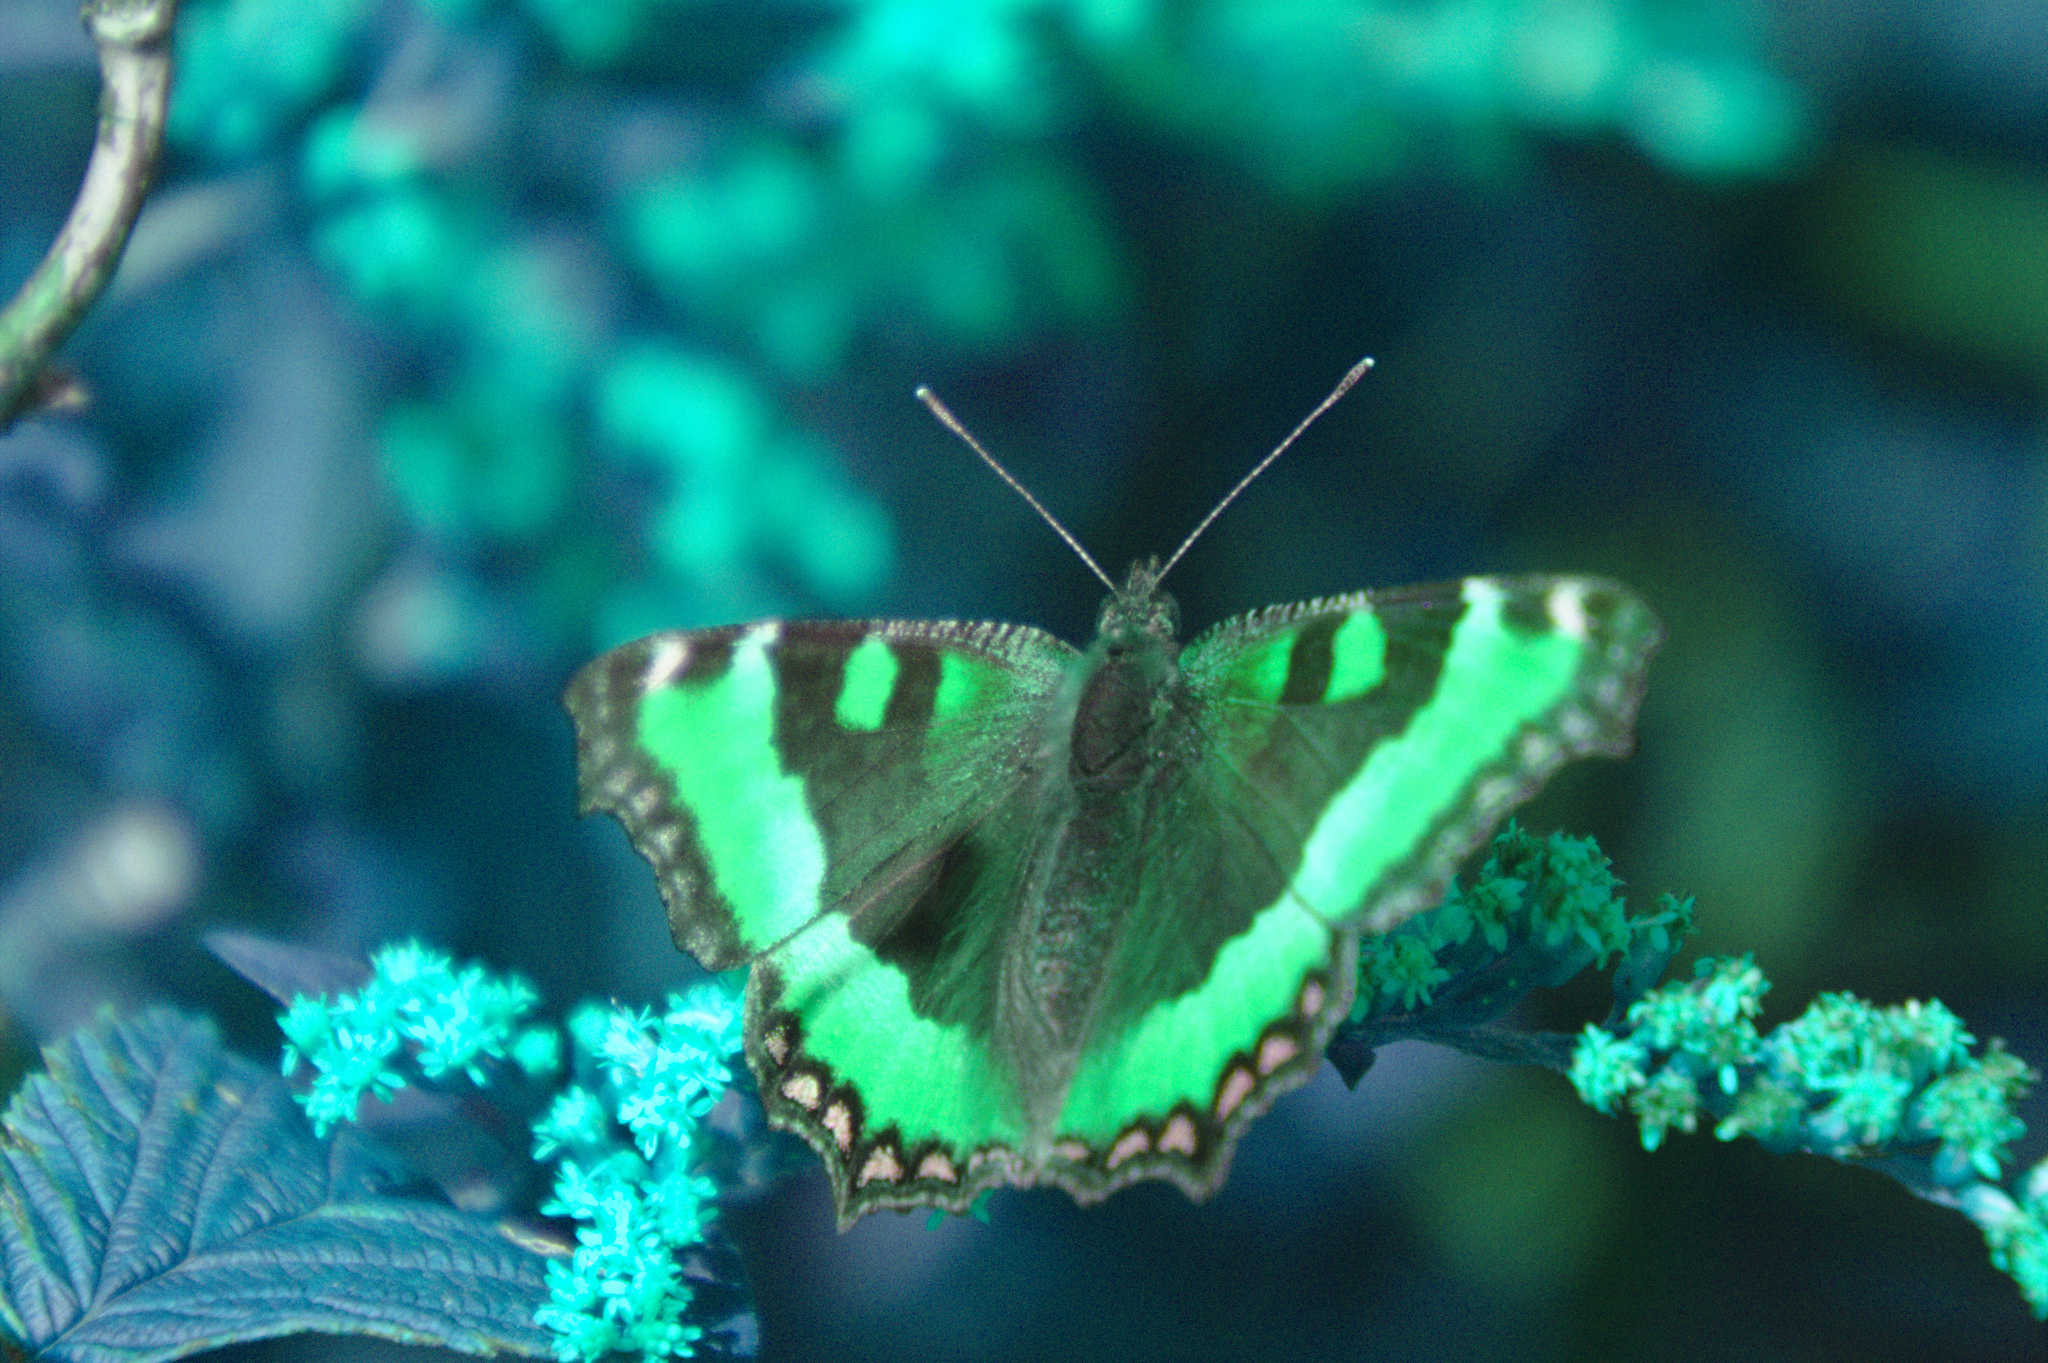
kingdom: Animalia
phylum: Arthropoda
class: Insecta
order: Lepidoptera
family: Nymphalidae
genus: Aglais
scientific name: Aglais milberti
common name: Milbert's tortoiseshell
